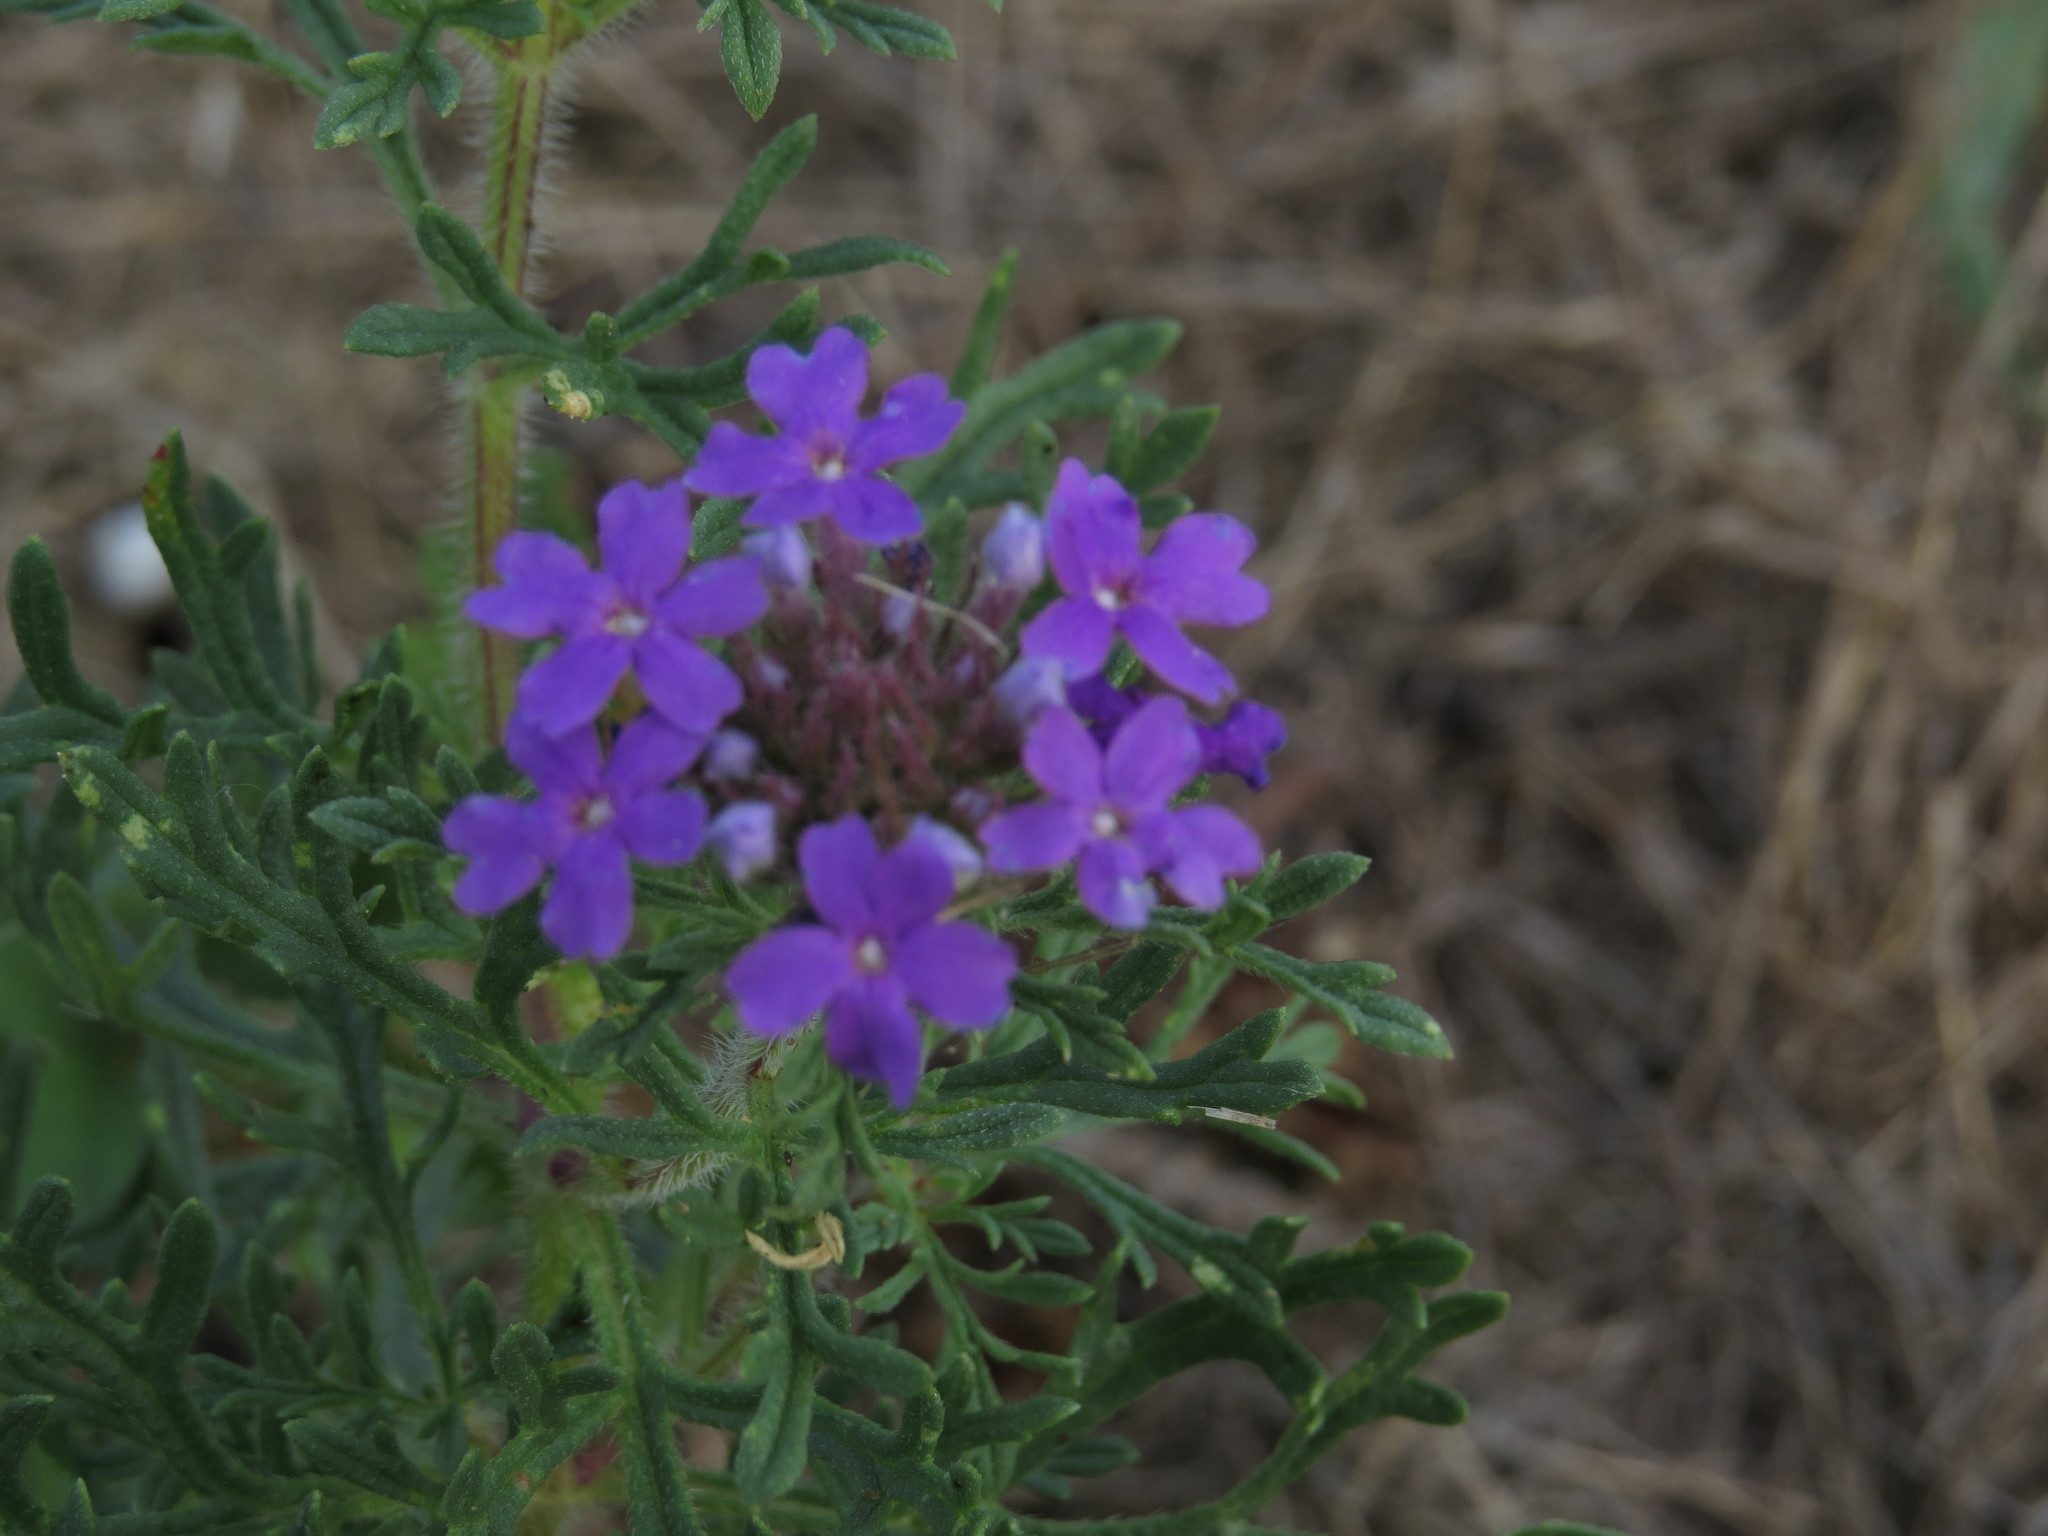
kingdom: Plantae
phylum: Tracheophyta
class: Magnoliopsida
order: Lamiales
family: Verbenaceae
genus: Verbena
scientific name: Verbena bipinnatifida
